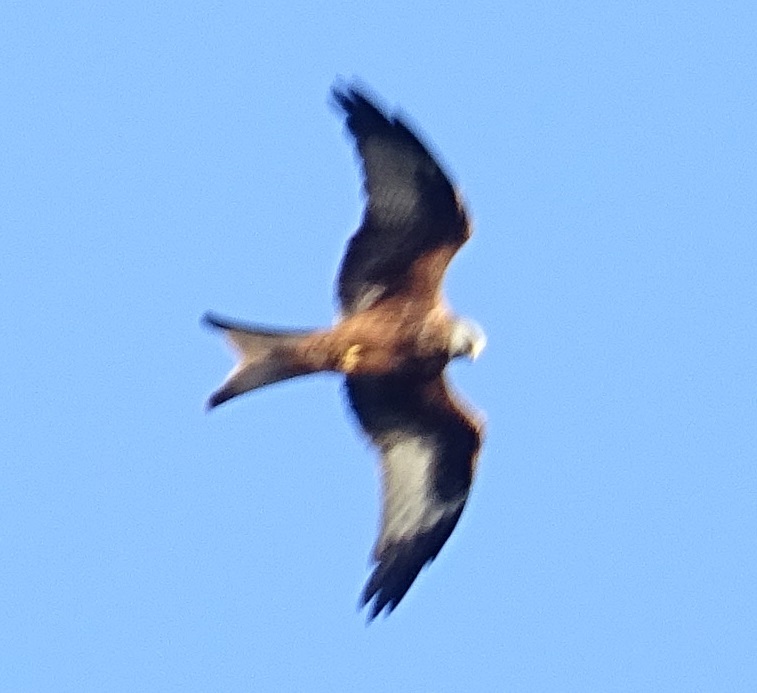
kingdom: Animalia
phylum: Chordata
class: Aves
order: Accipitriformes
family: Accipitridae
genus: Milvus
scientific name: Milvus milvus
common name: Red kite
